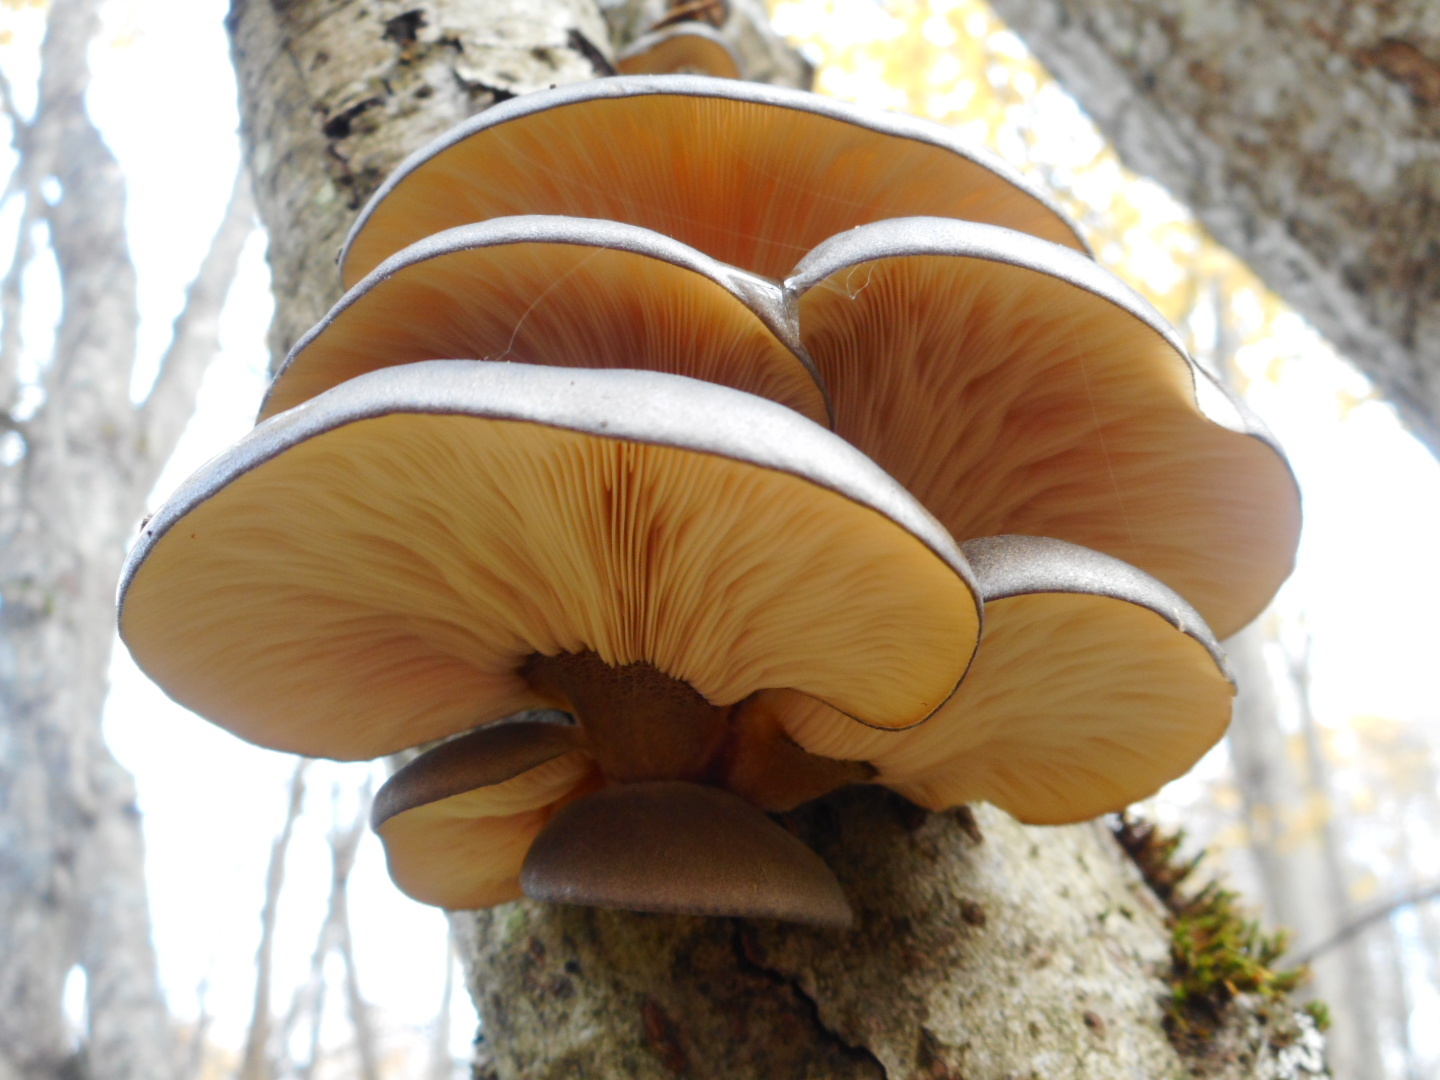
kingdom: Fungi
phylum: Basidiomycota
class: Agaricomycetes
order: Agaricales
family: Sarcomyxaceae
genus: Sarcomyxa
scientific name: Sarcomyxa serotina
